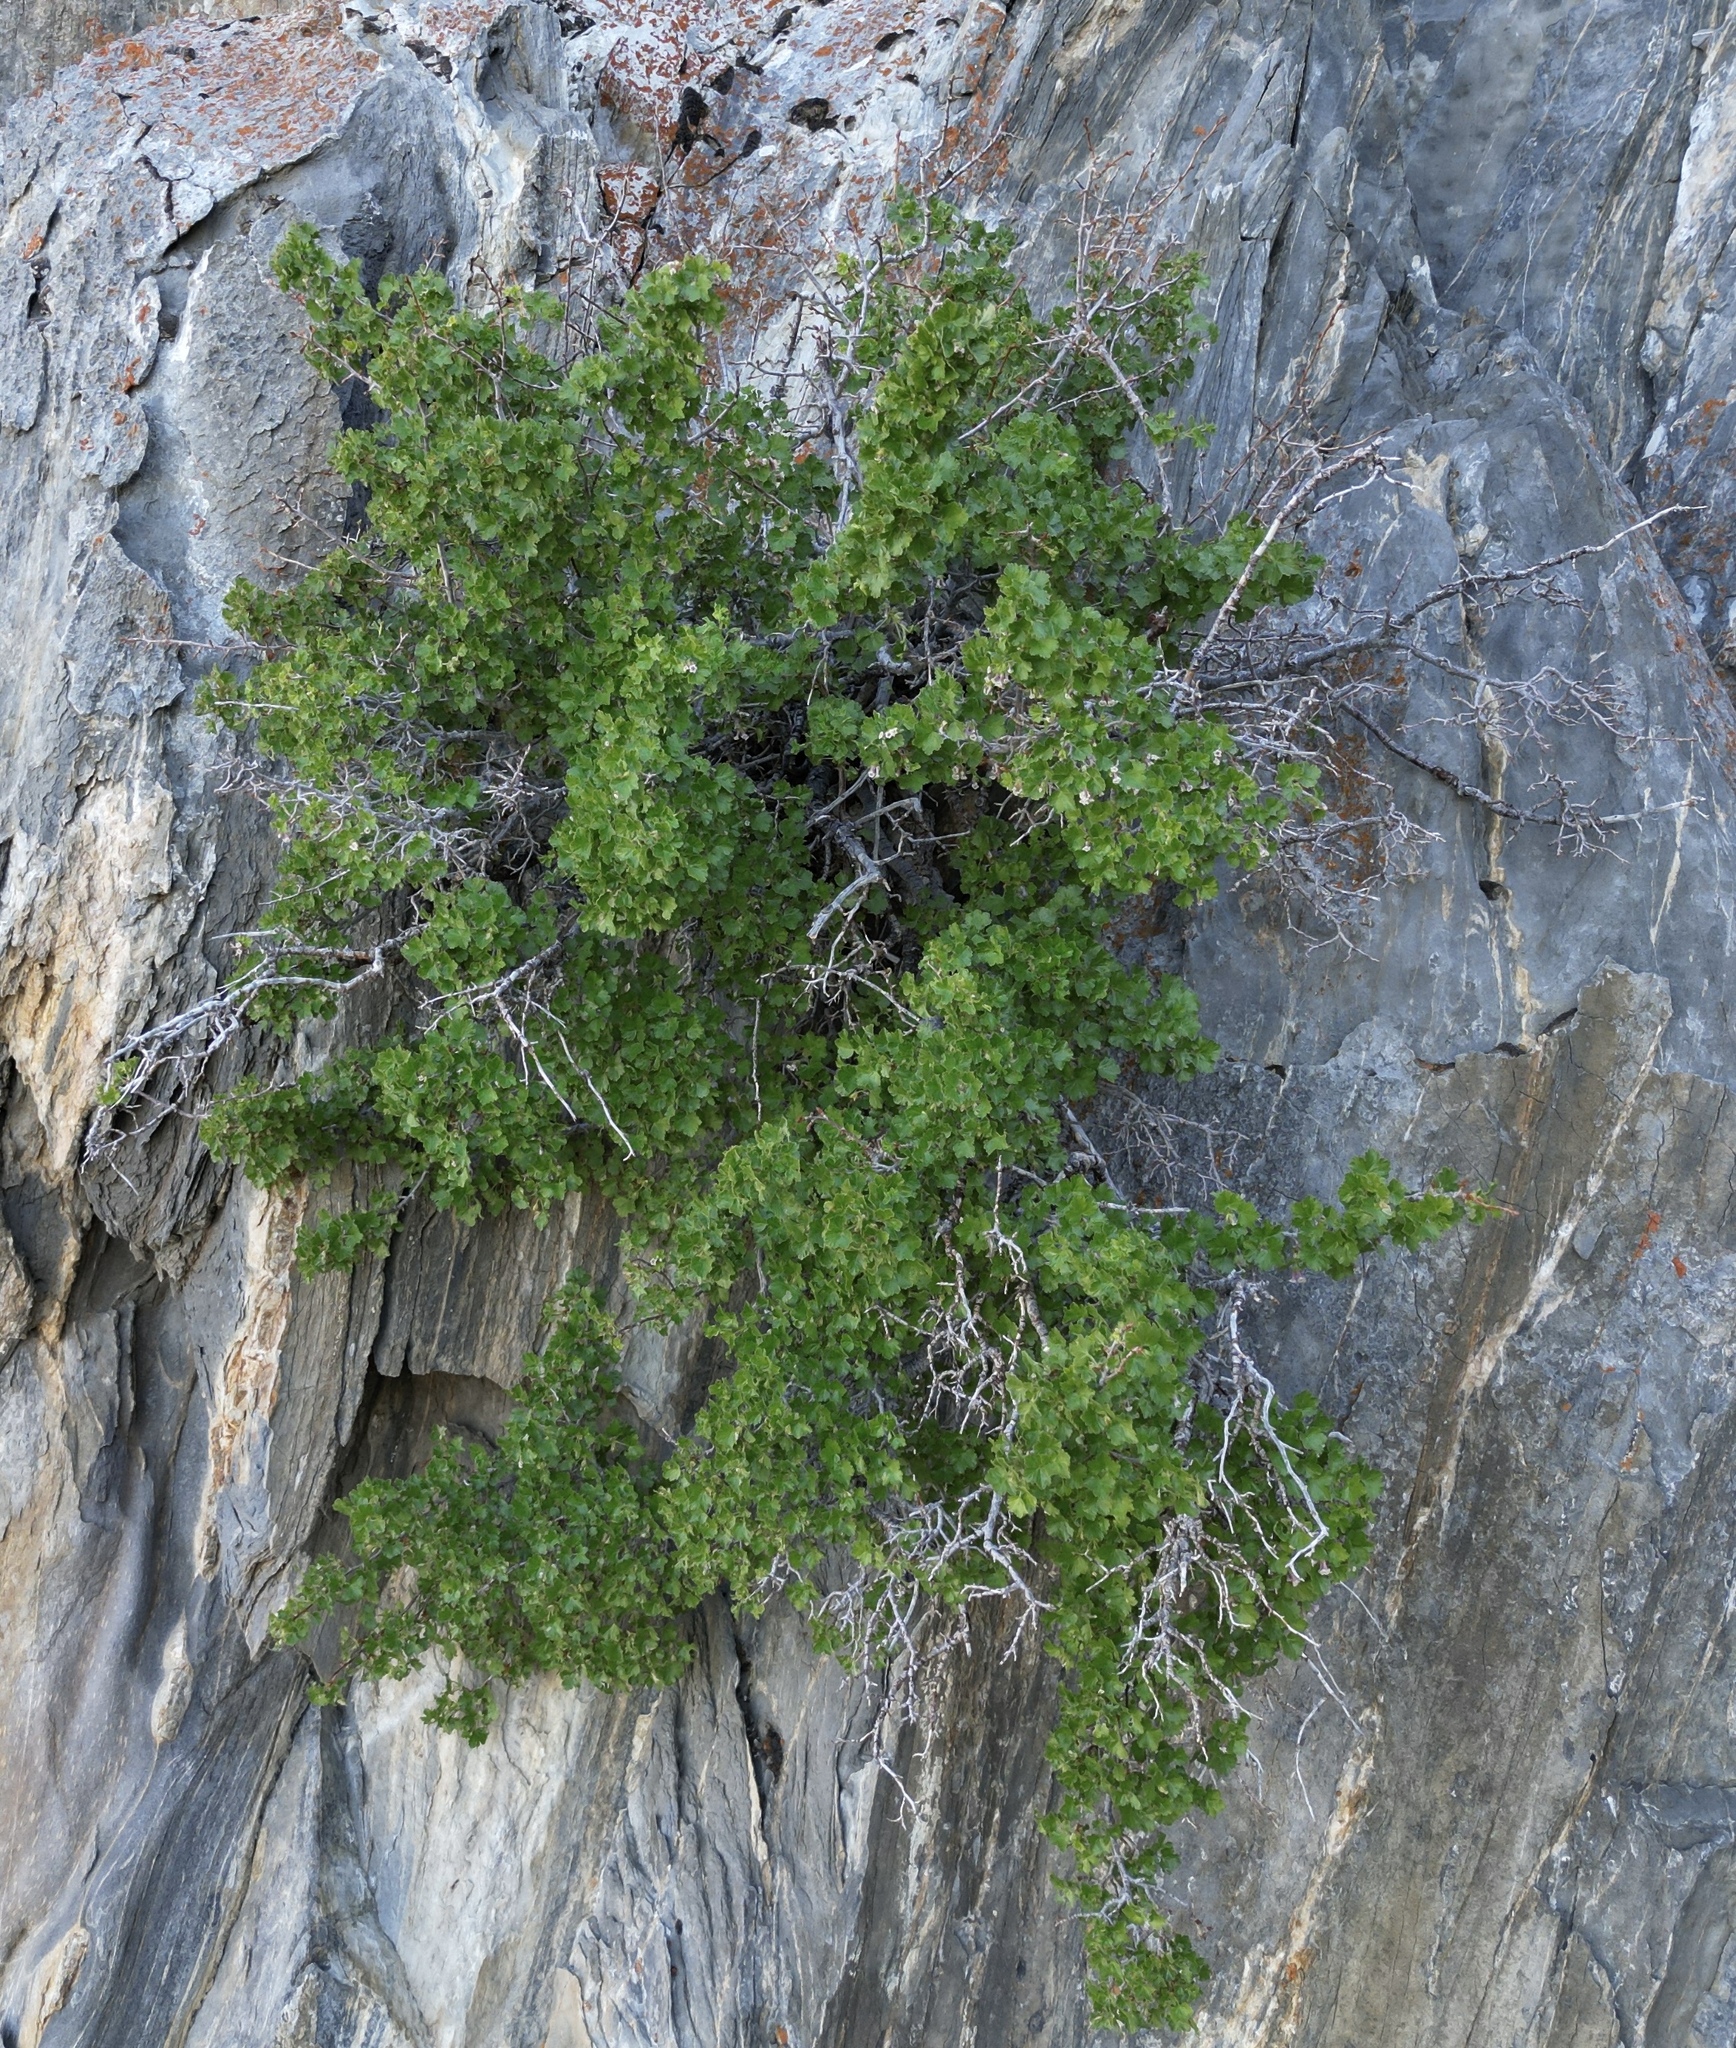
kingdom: Plantae
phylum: Tracheophyta
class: Magnoliopsida
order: Saxifragales
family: Grossulariaceae
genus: Ribes
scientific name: Ribes cereum
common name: Wax currant
